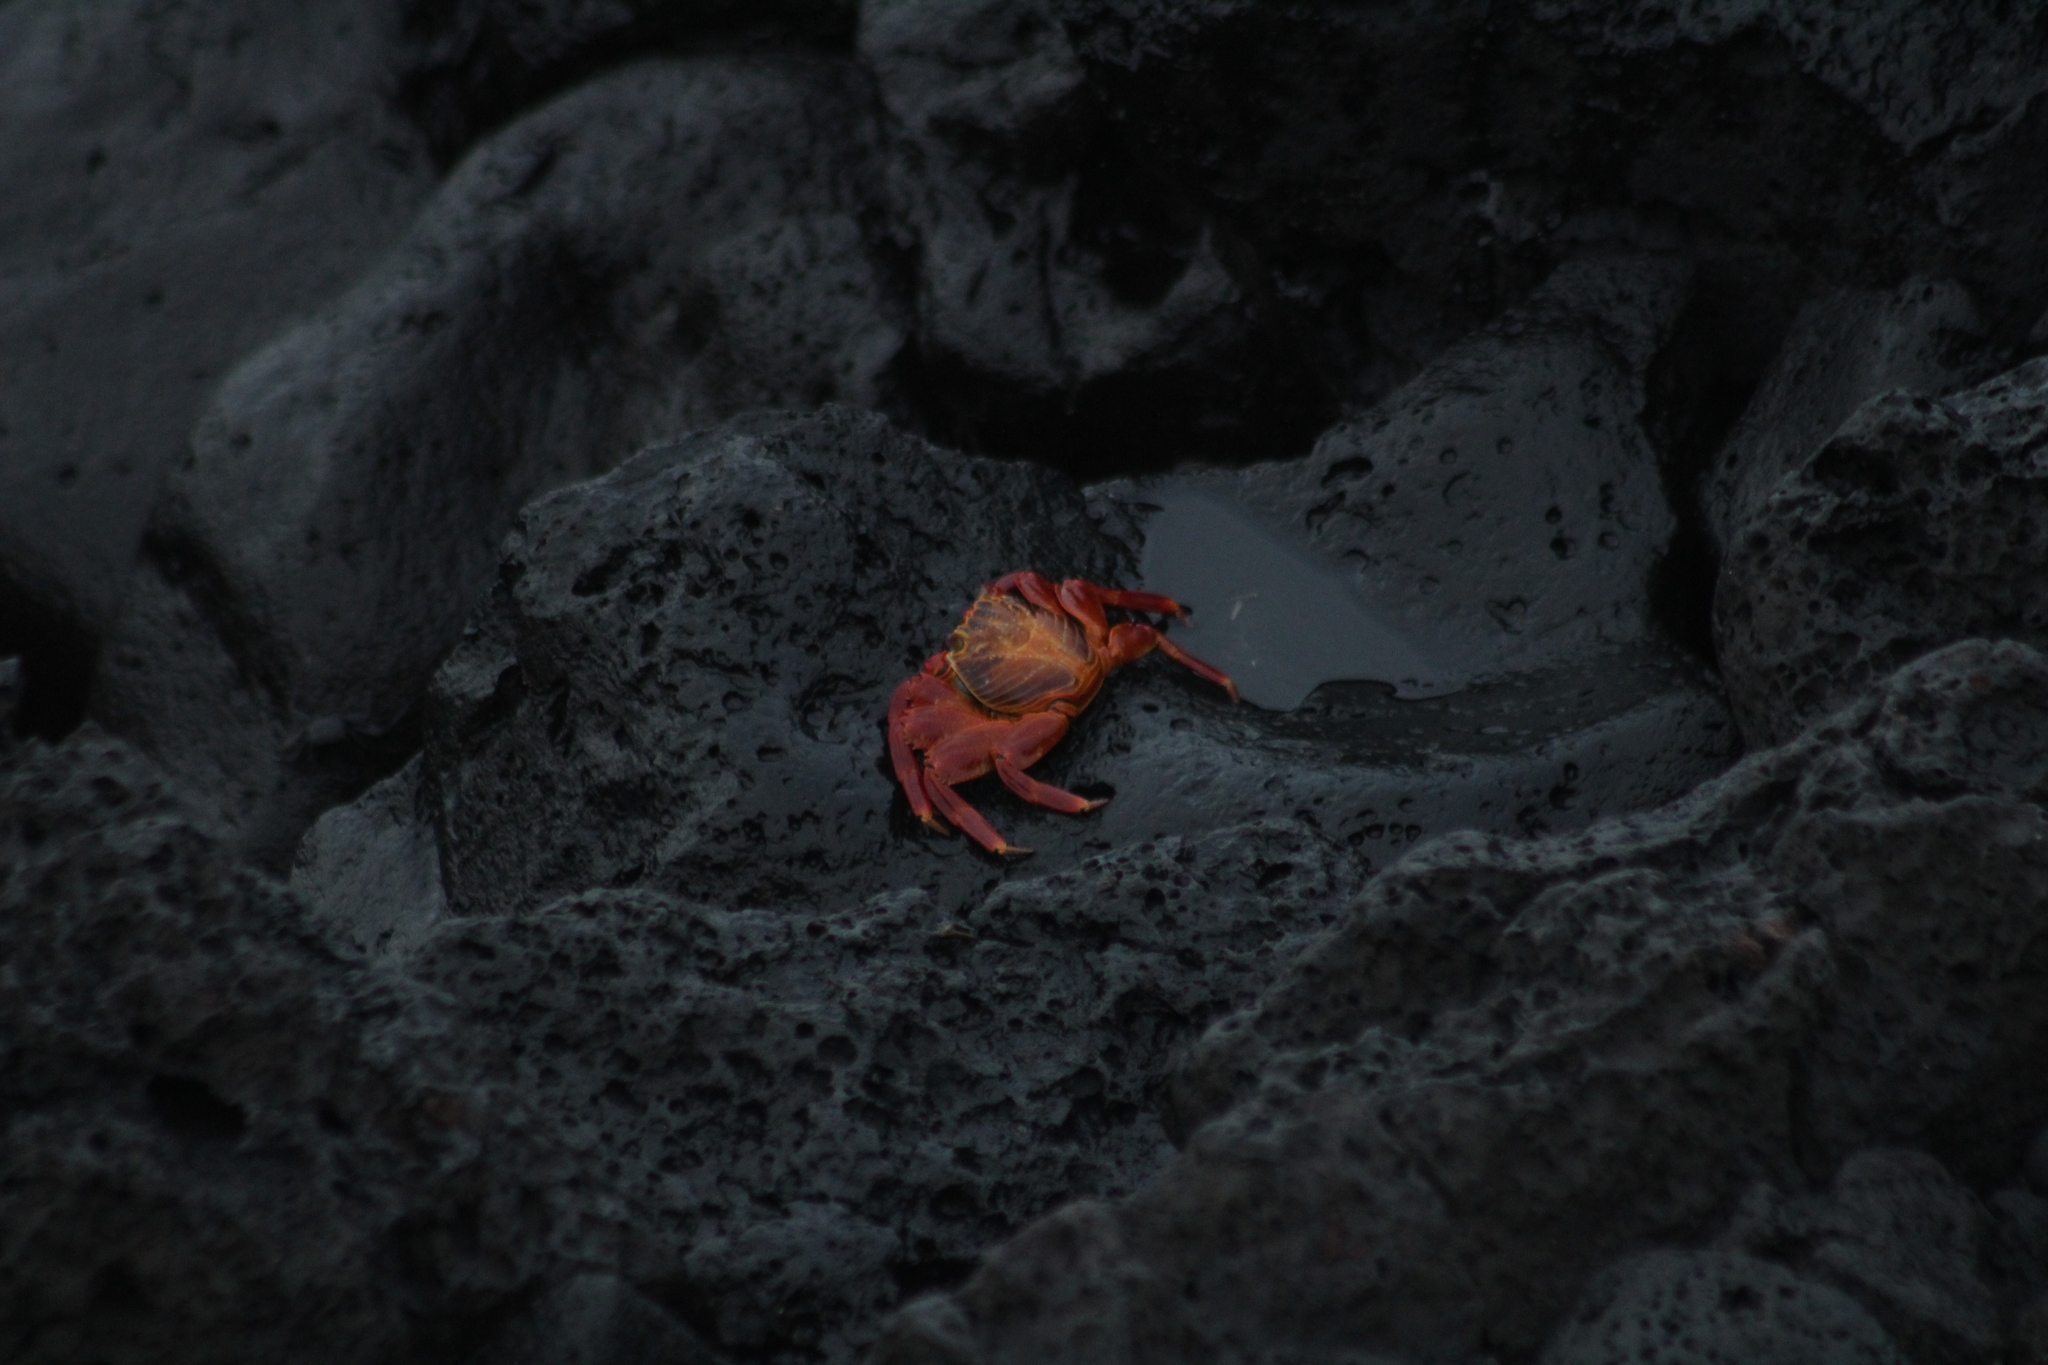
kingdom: Animalia
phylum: Arthropoda
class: Malacostraca
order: Decapoda
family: Grapsidae
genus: Grapsus
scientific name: Grapsus grapsus
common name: Sally lightfoot
